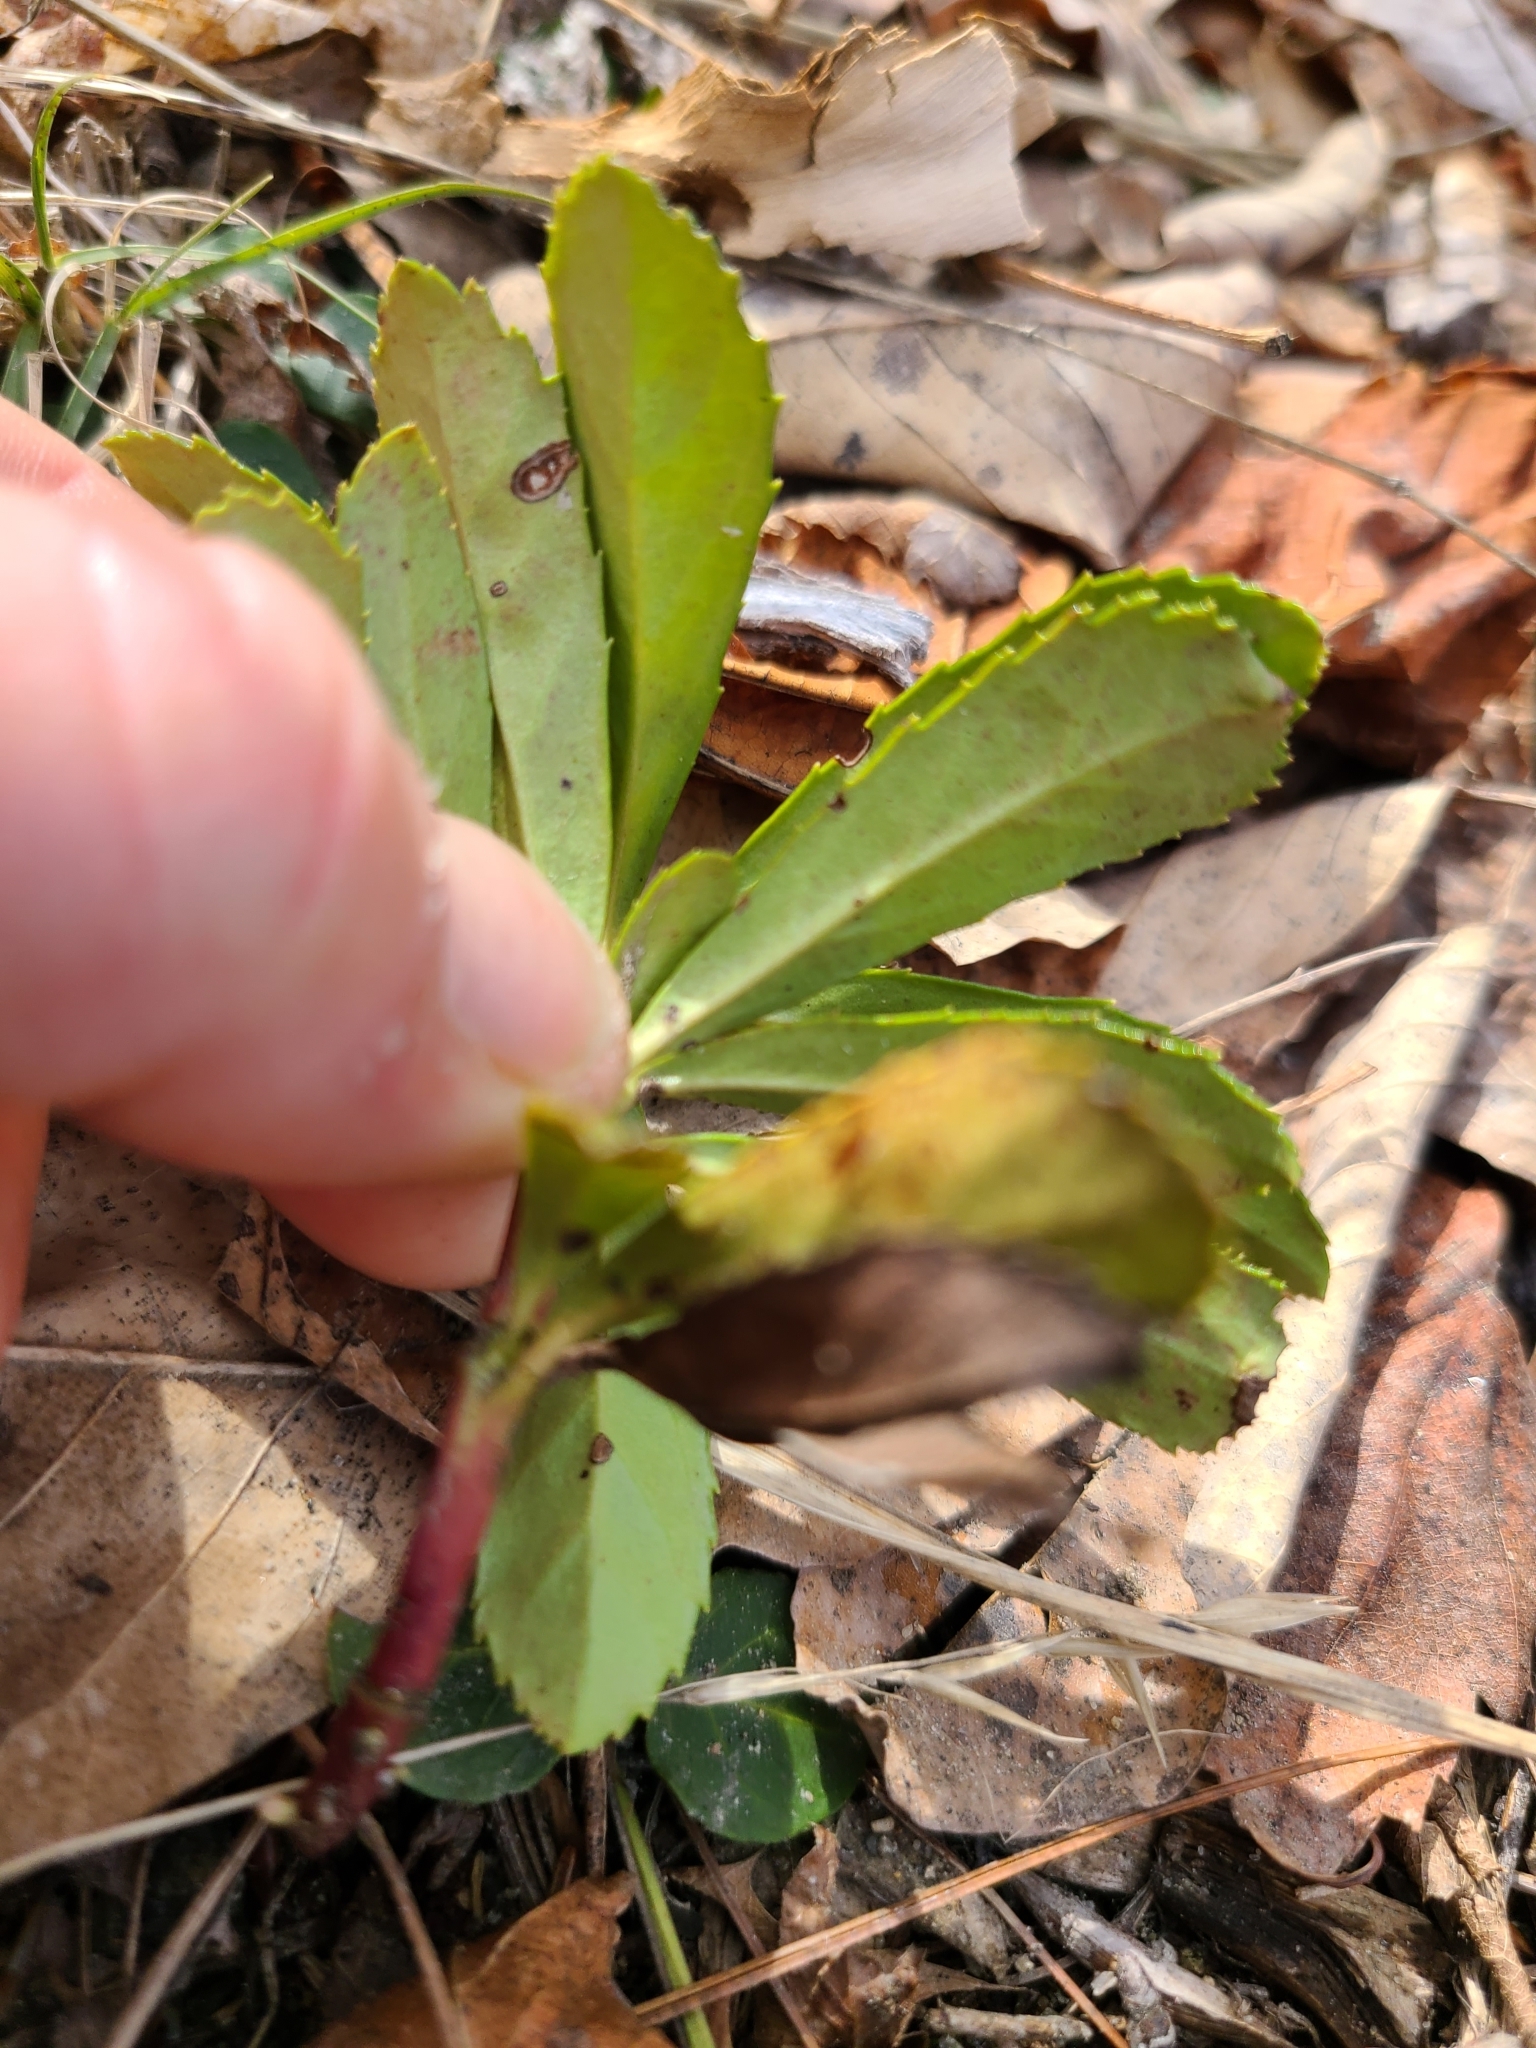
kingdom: Plantae
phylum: Tracheophyta
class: Magnoliopsida
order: Ericales
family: Ericaceae
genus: Chimaphila
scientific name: Chimaphila umbellata
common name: Pipsissewa
